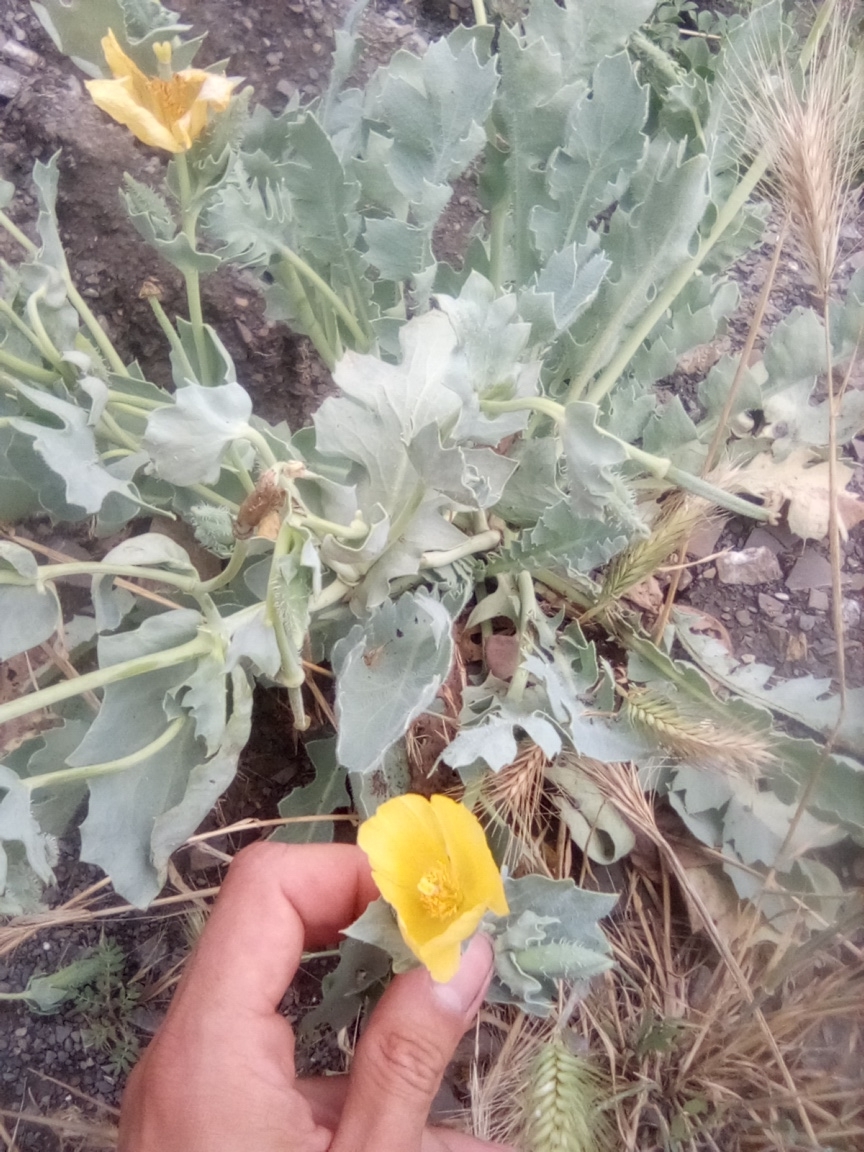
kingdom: Plantae
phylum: Tracheophyta
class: Magnoliopsida
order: Ranunculales
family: Papaveraceae
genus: Glaucium
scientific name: Glaucium flavum
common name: Yellow horned-poppy
